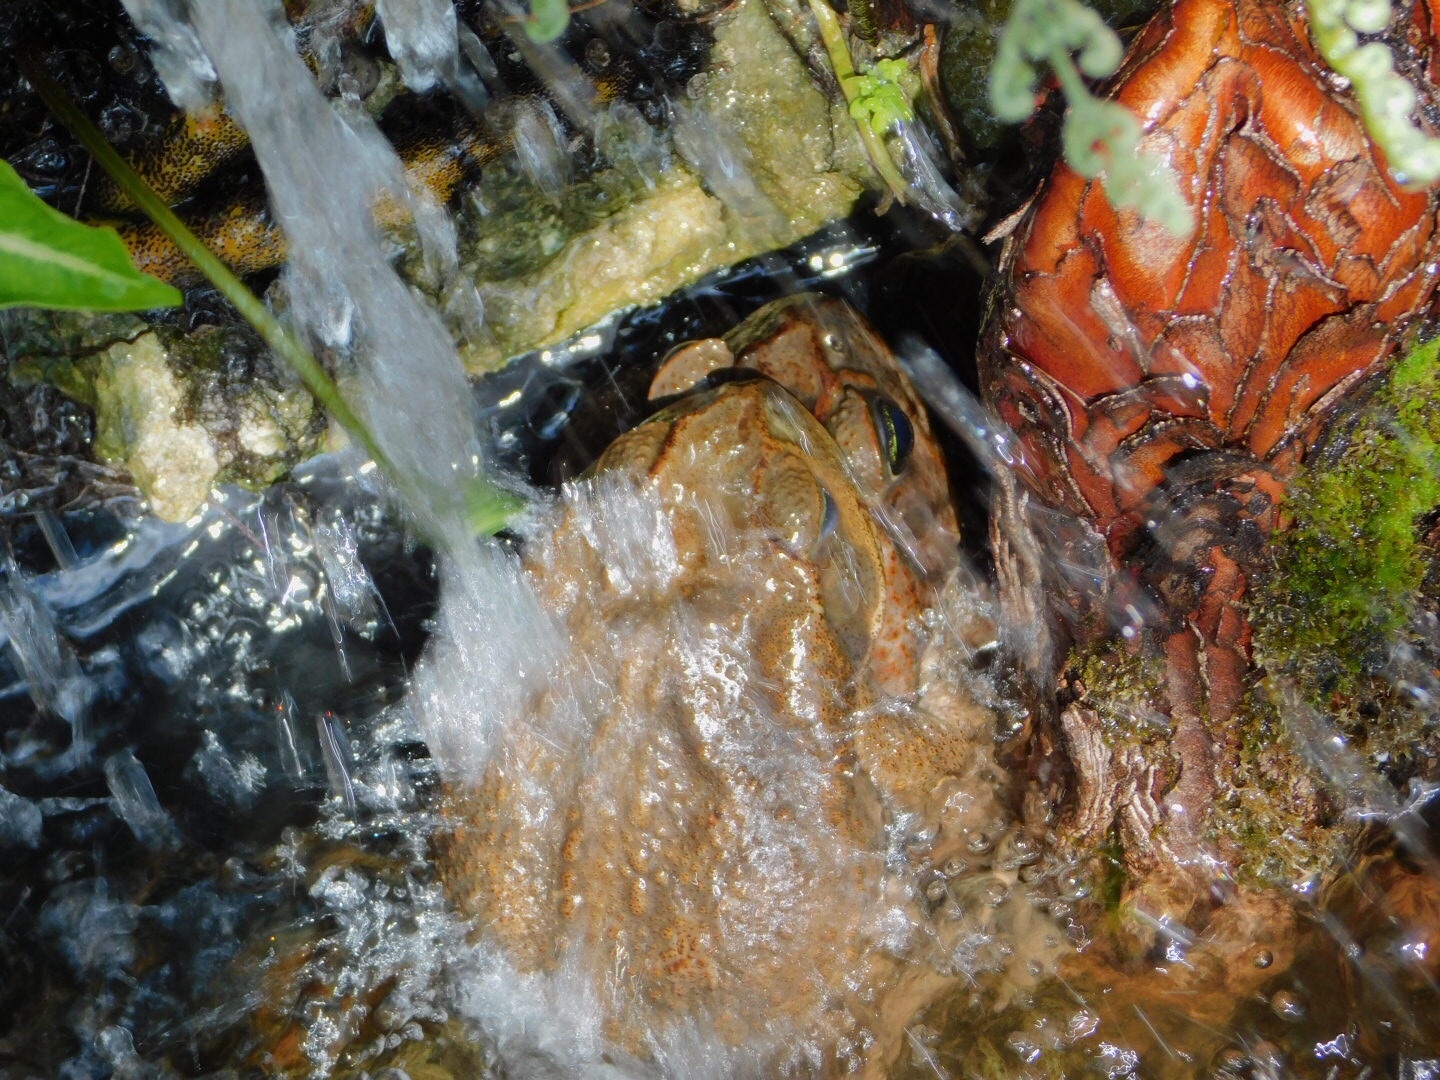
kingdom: Animalia
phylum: Chordata
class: Amphibia
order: Anura
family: Bufonidae
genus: Rhinella
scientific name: Rhinella marina
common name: Cane toad
